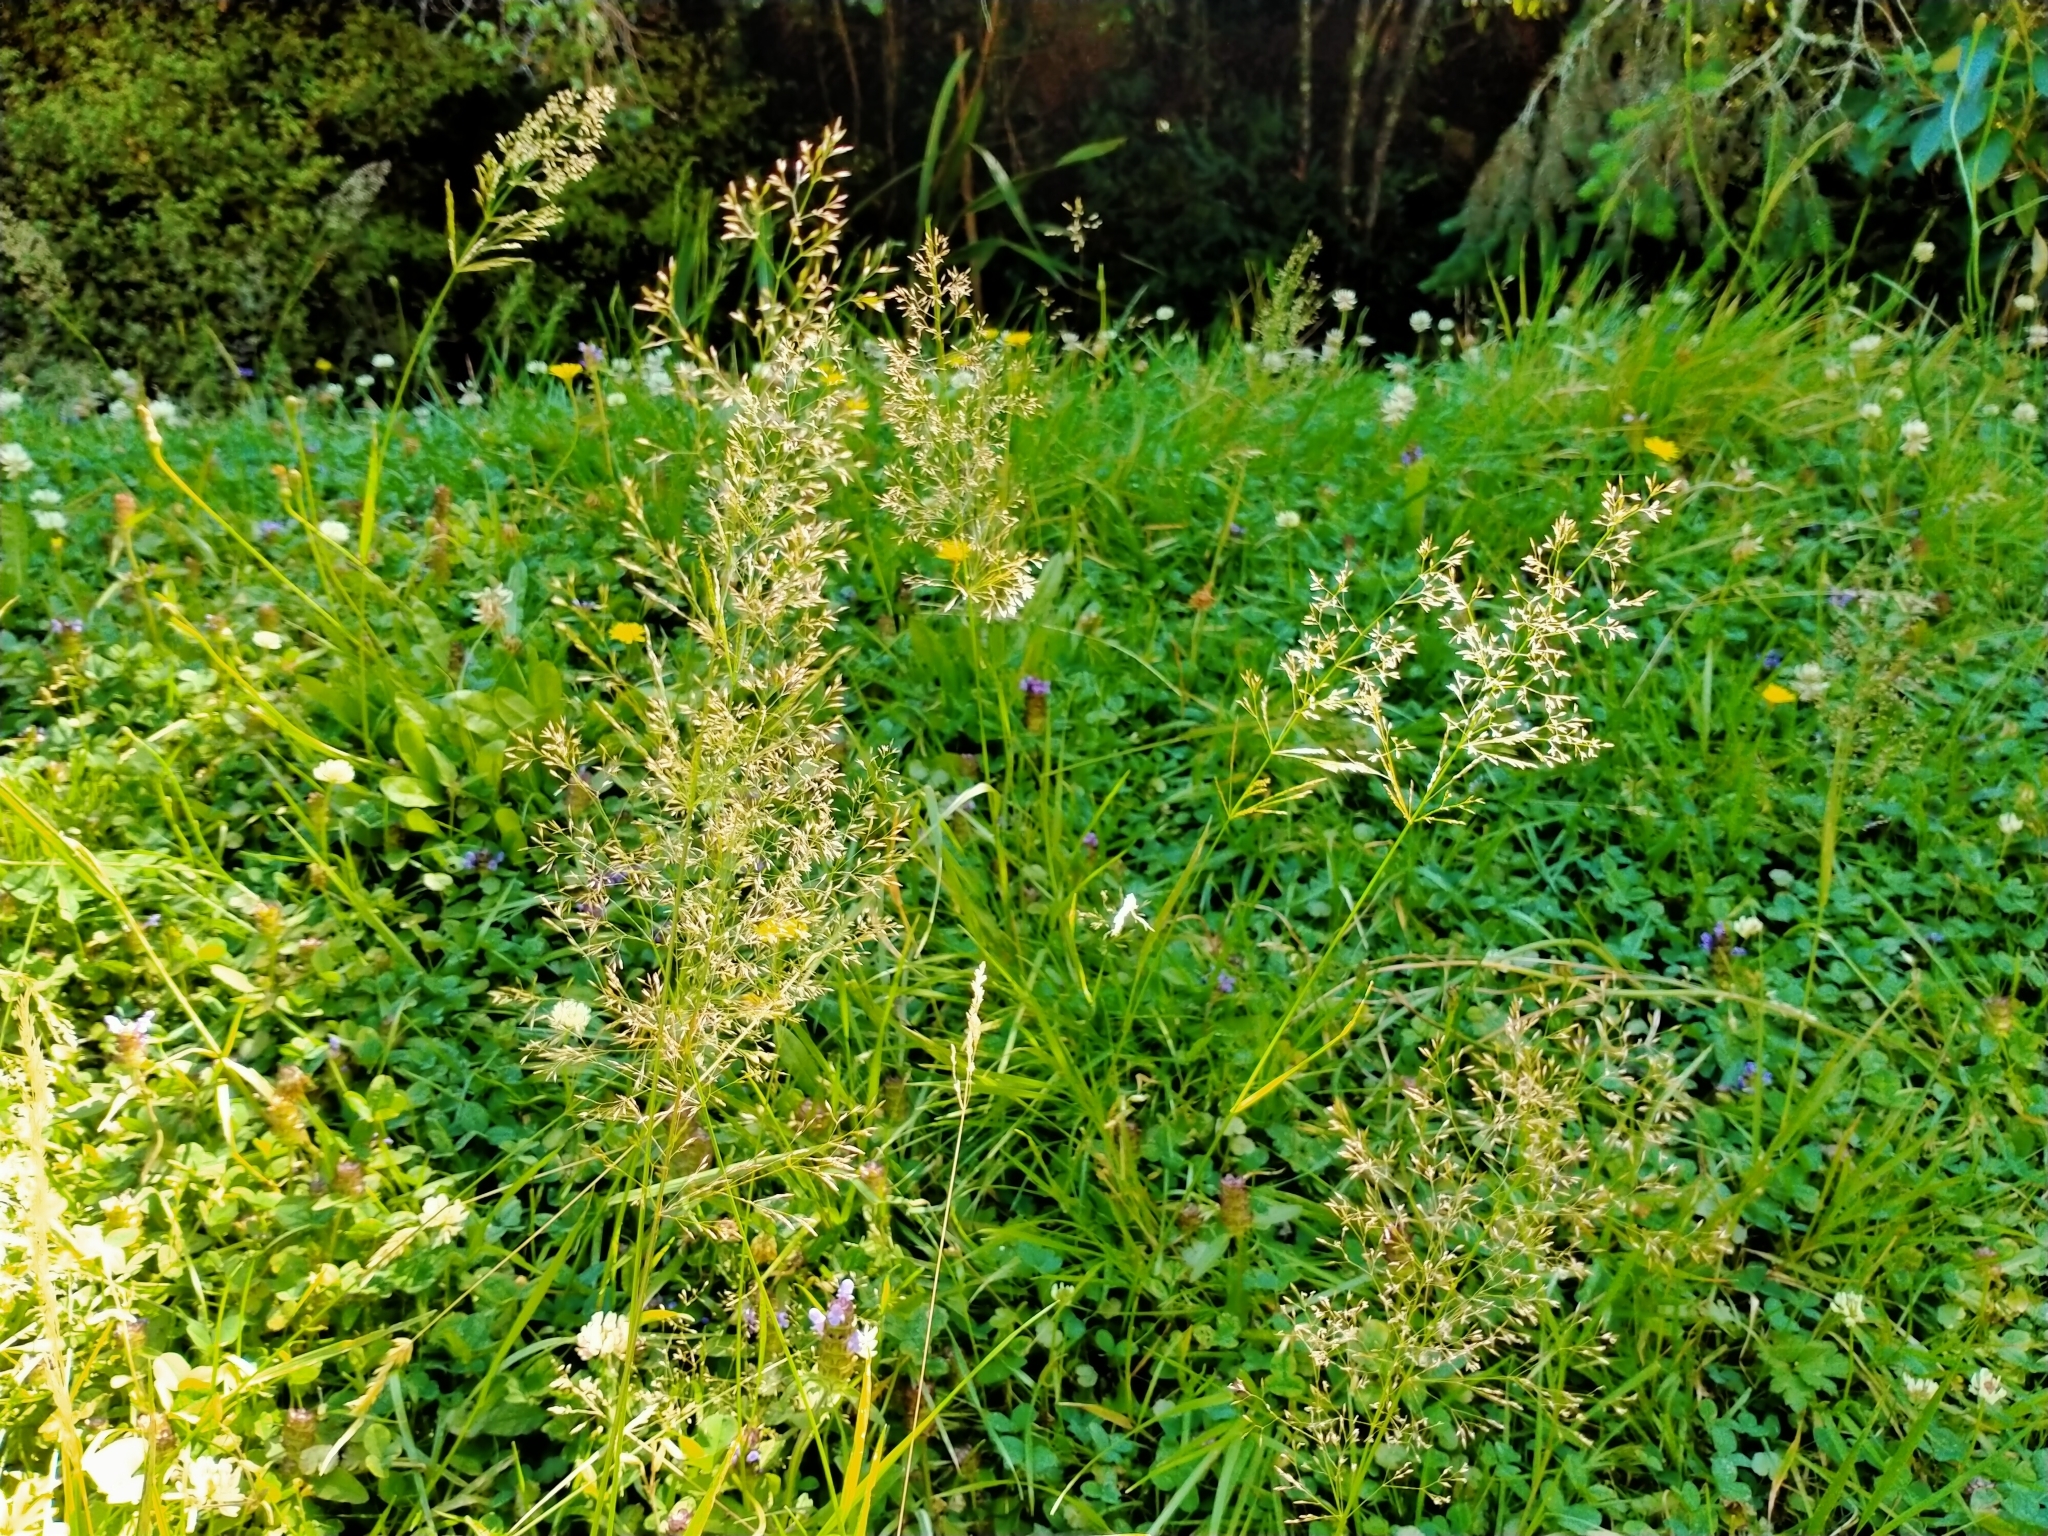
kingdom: Plantae
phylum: Tracheophyta
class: Liliopsida
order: Poales
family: Poaceae
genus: Agrostis
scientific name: Agrostis capillaris
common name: Colonial bentgrass
